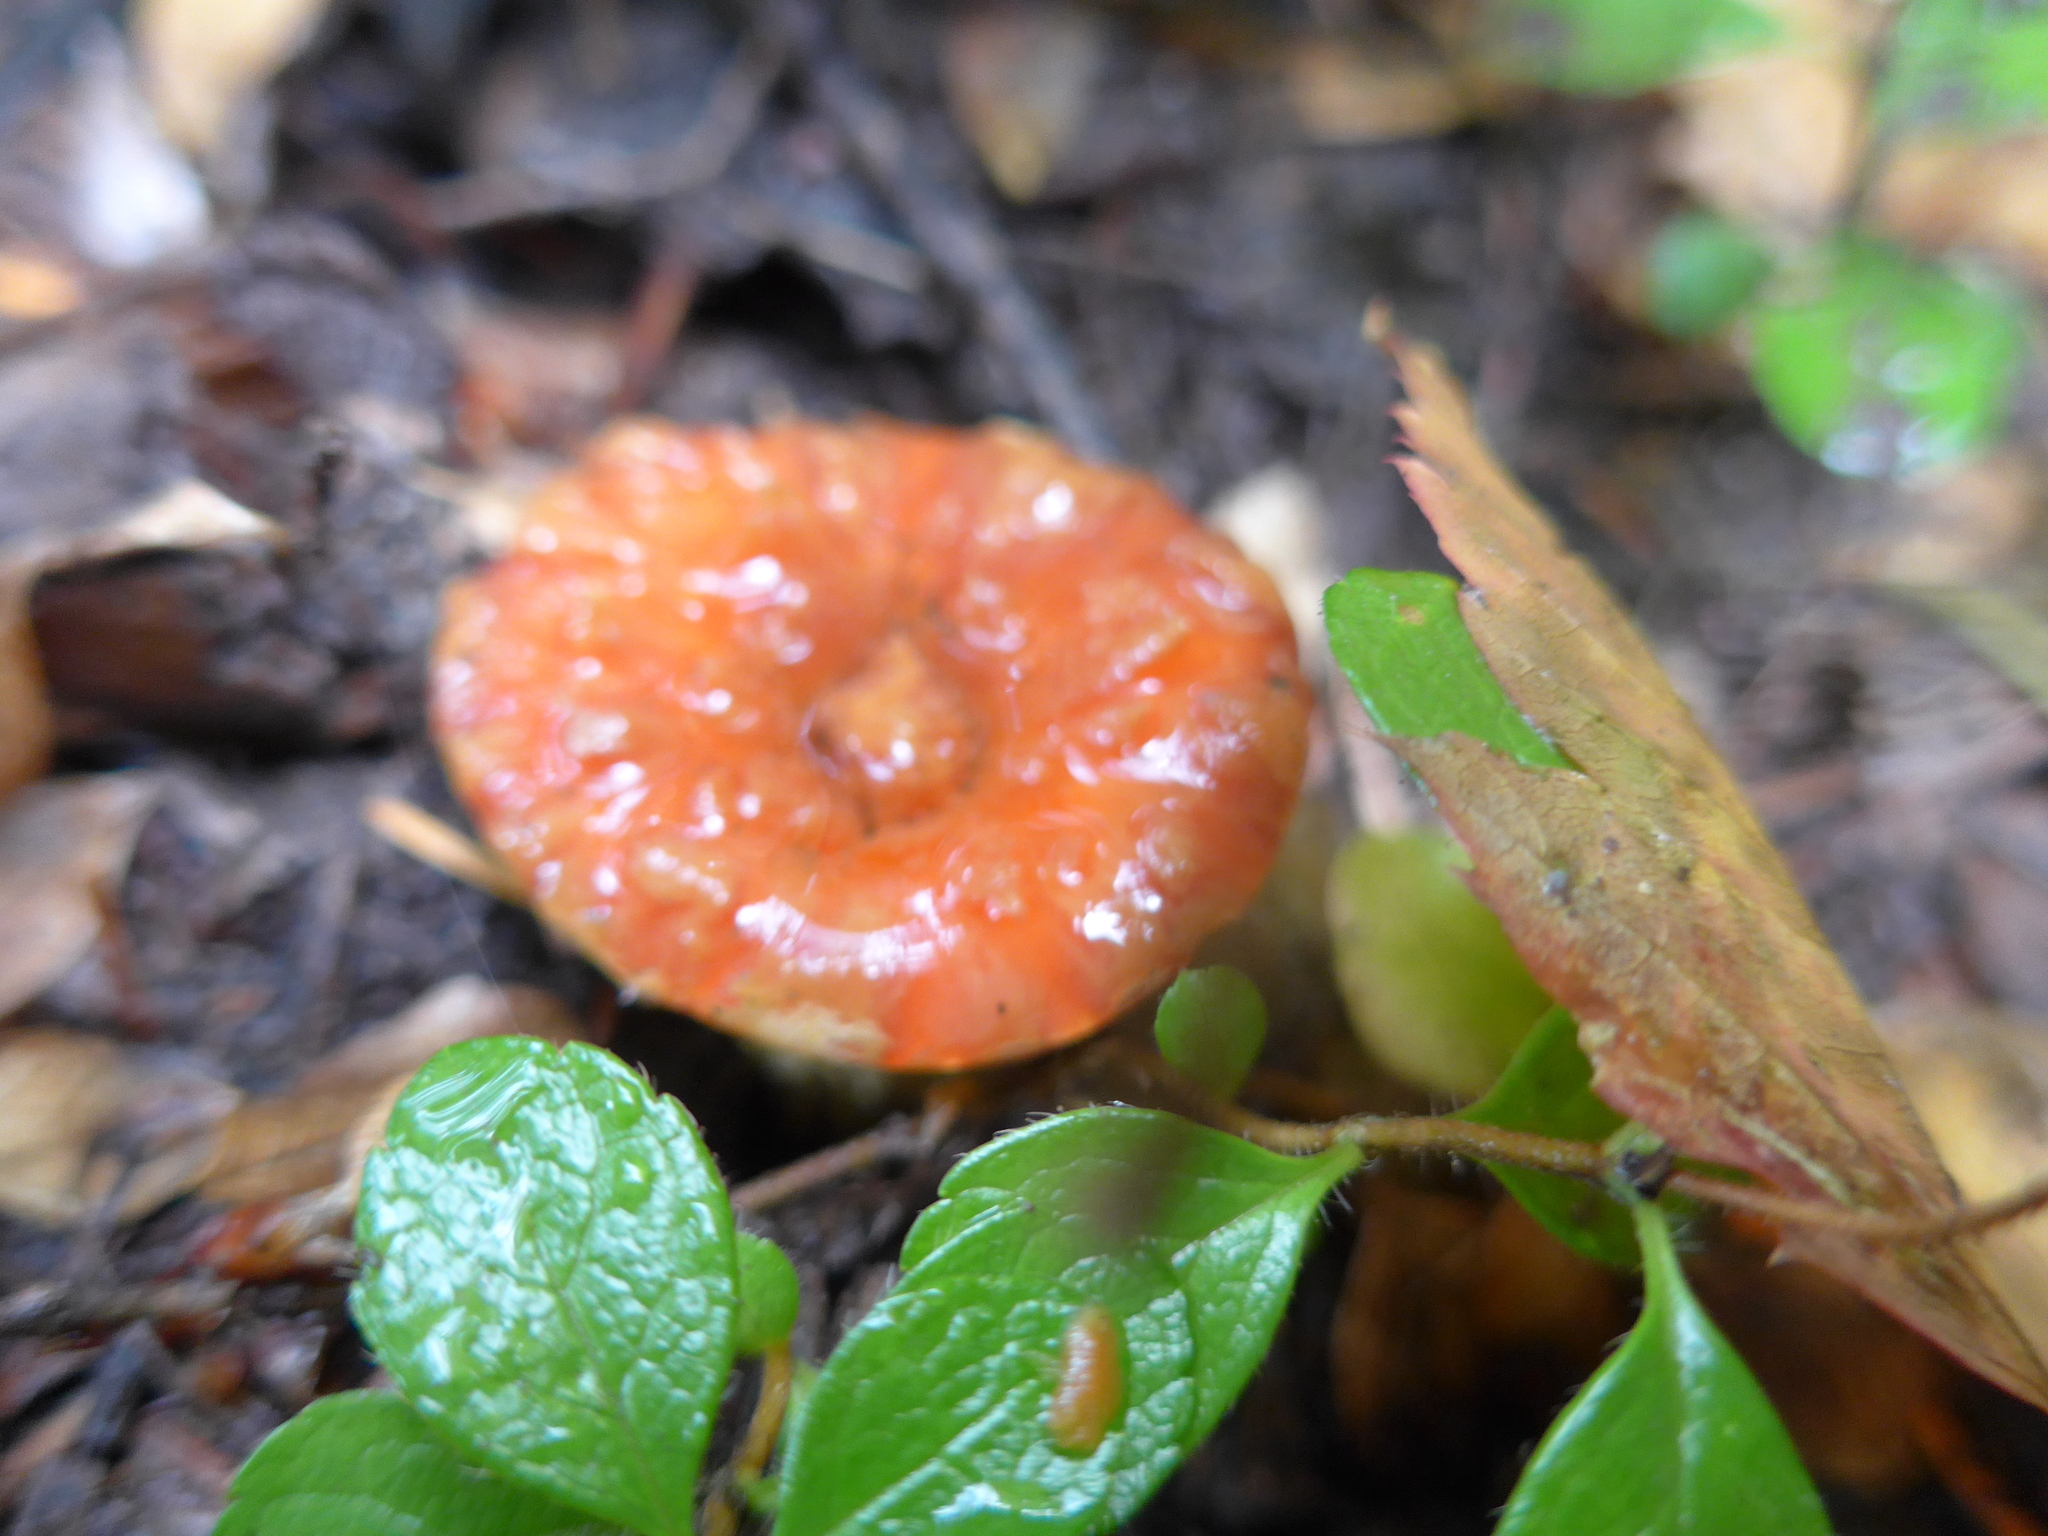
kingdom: Fungi
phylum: Basidiomycota
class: Agaricomycetes
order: Gomphales
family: Gomphaceae
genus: Turbinellus
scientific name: Turbinellus floccosus
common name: Scaly chanterelle
